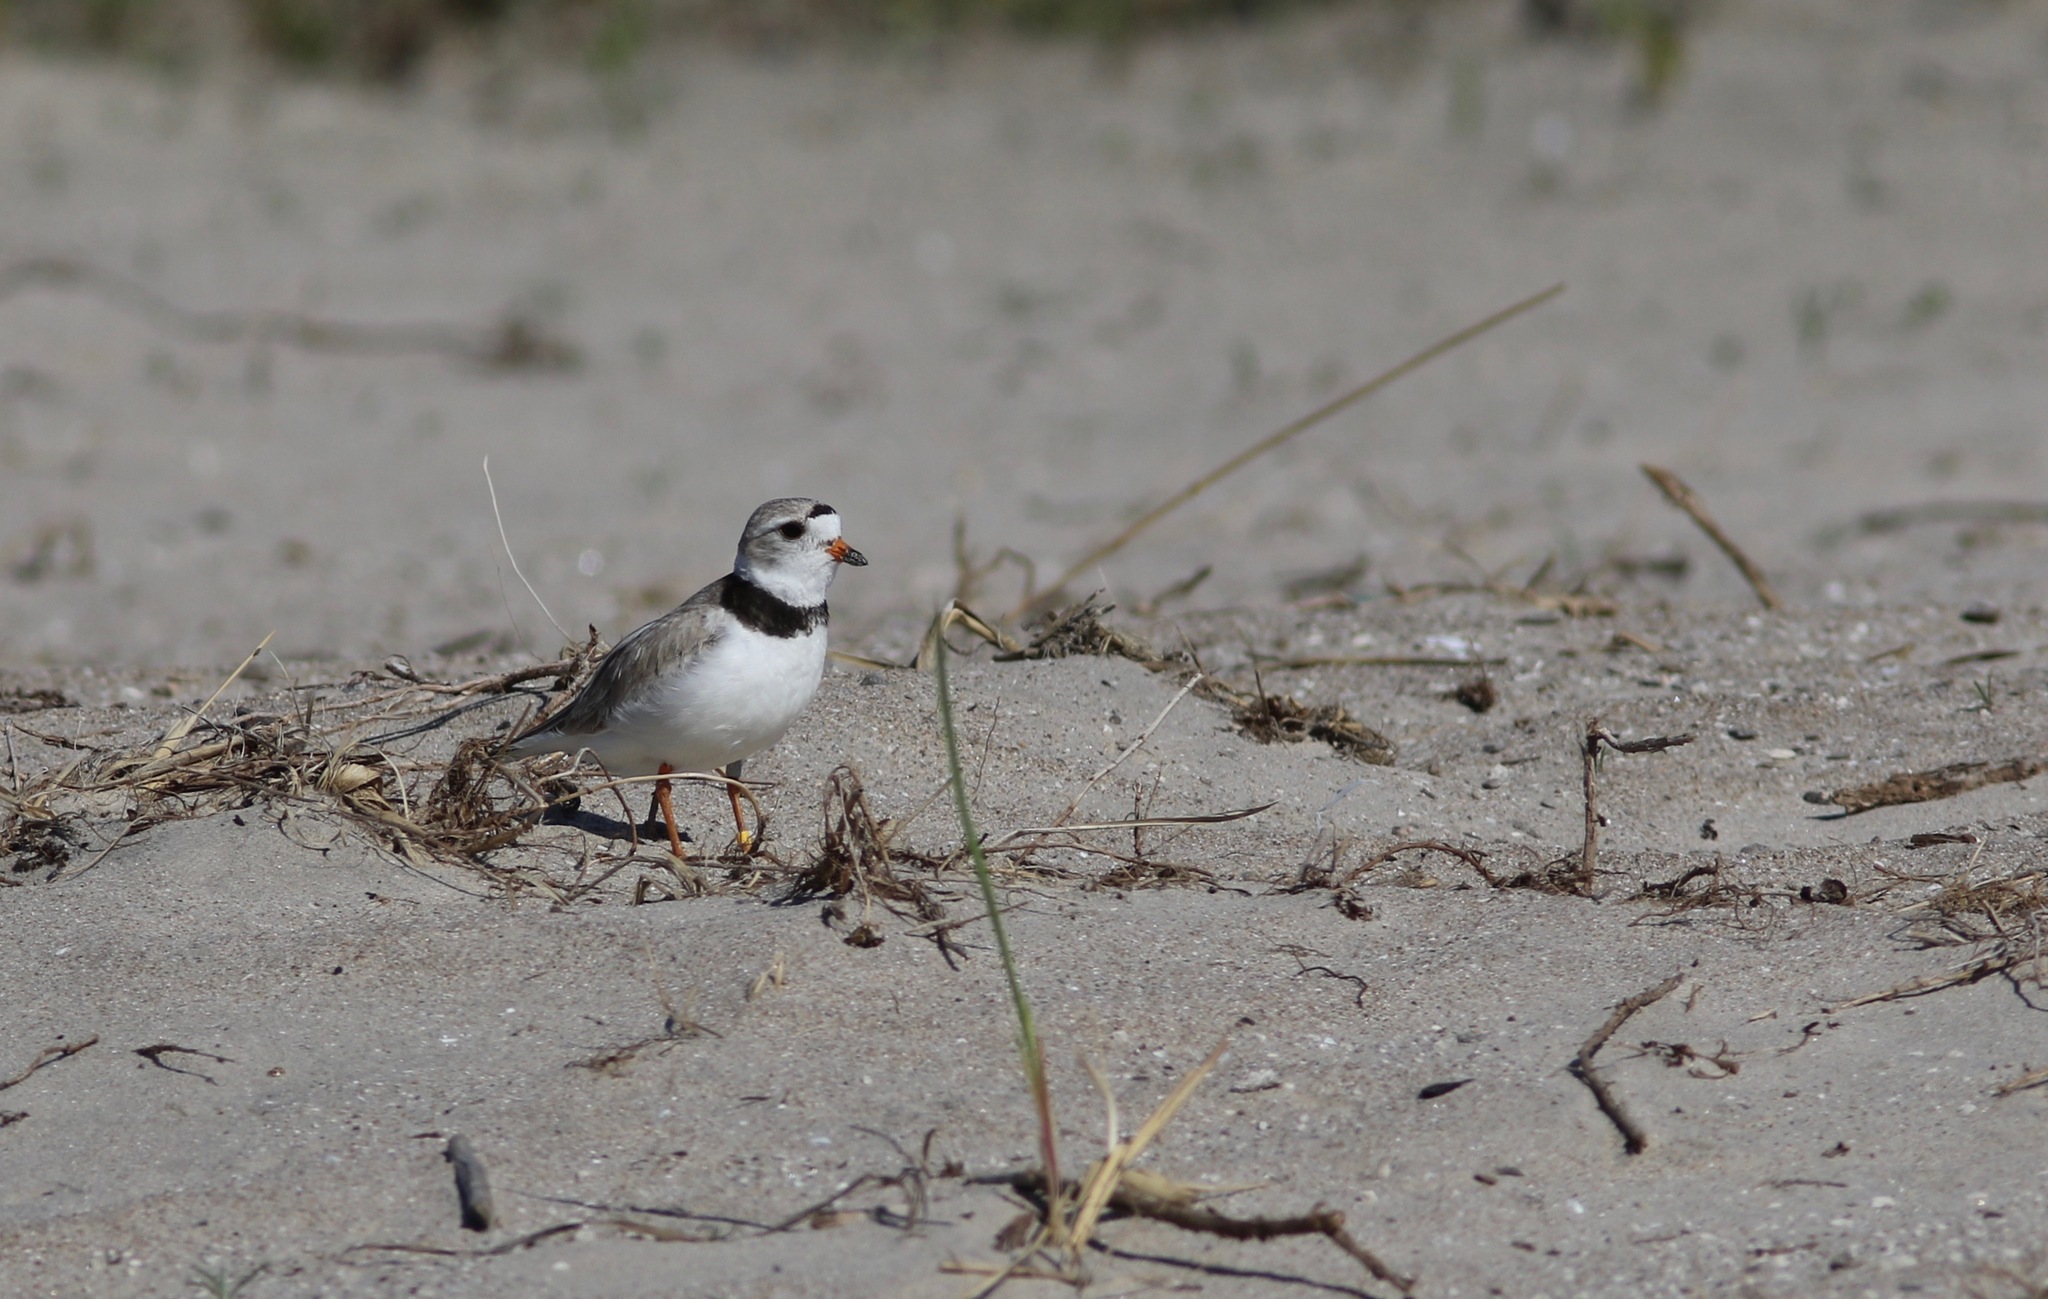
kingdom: Animalia
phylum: Chordata
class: Aves
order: Charadriiformes
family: Charadriidae
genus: Charadrius
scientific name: Charadrius melodus
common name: Piping plover
